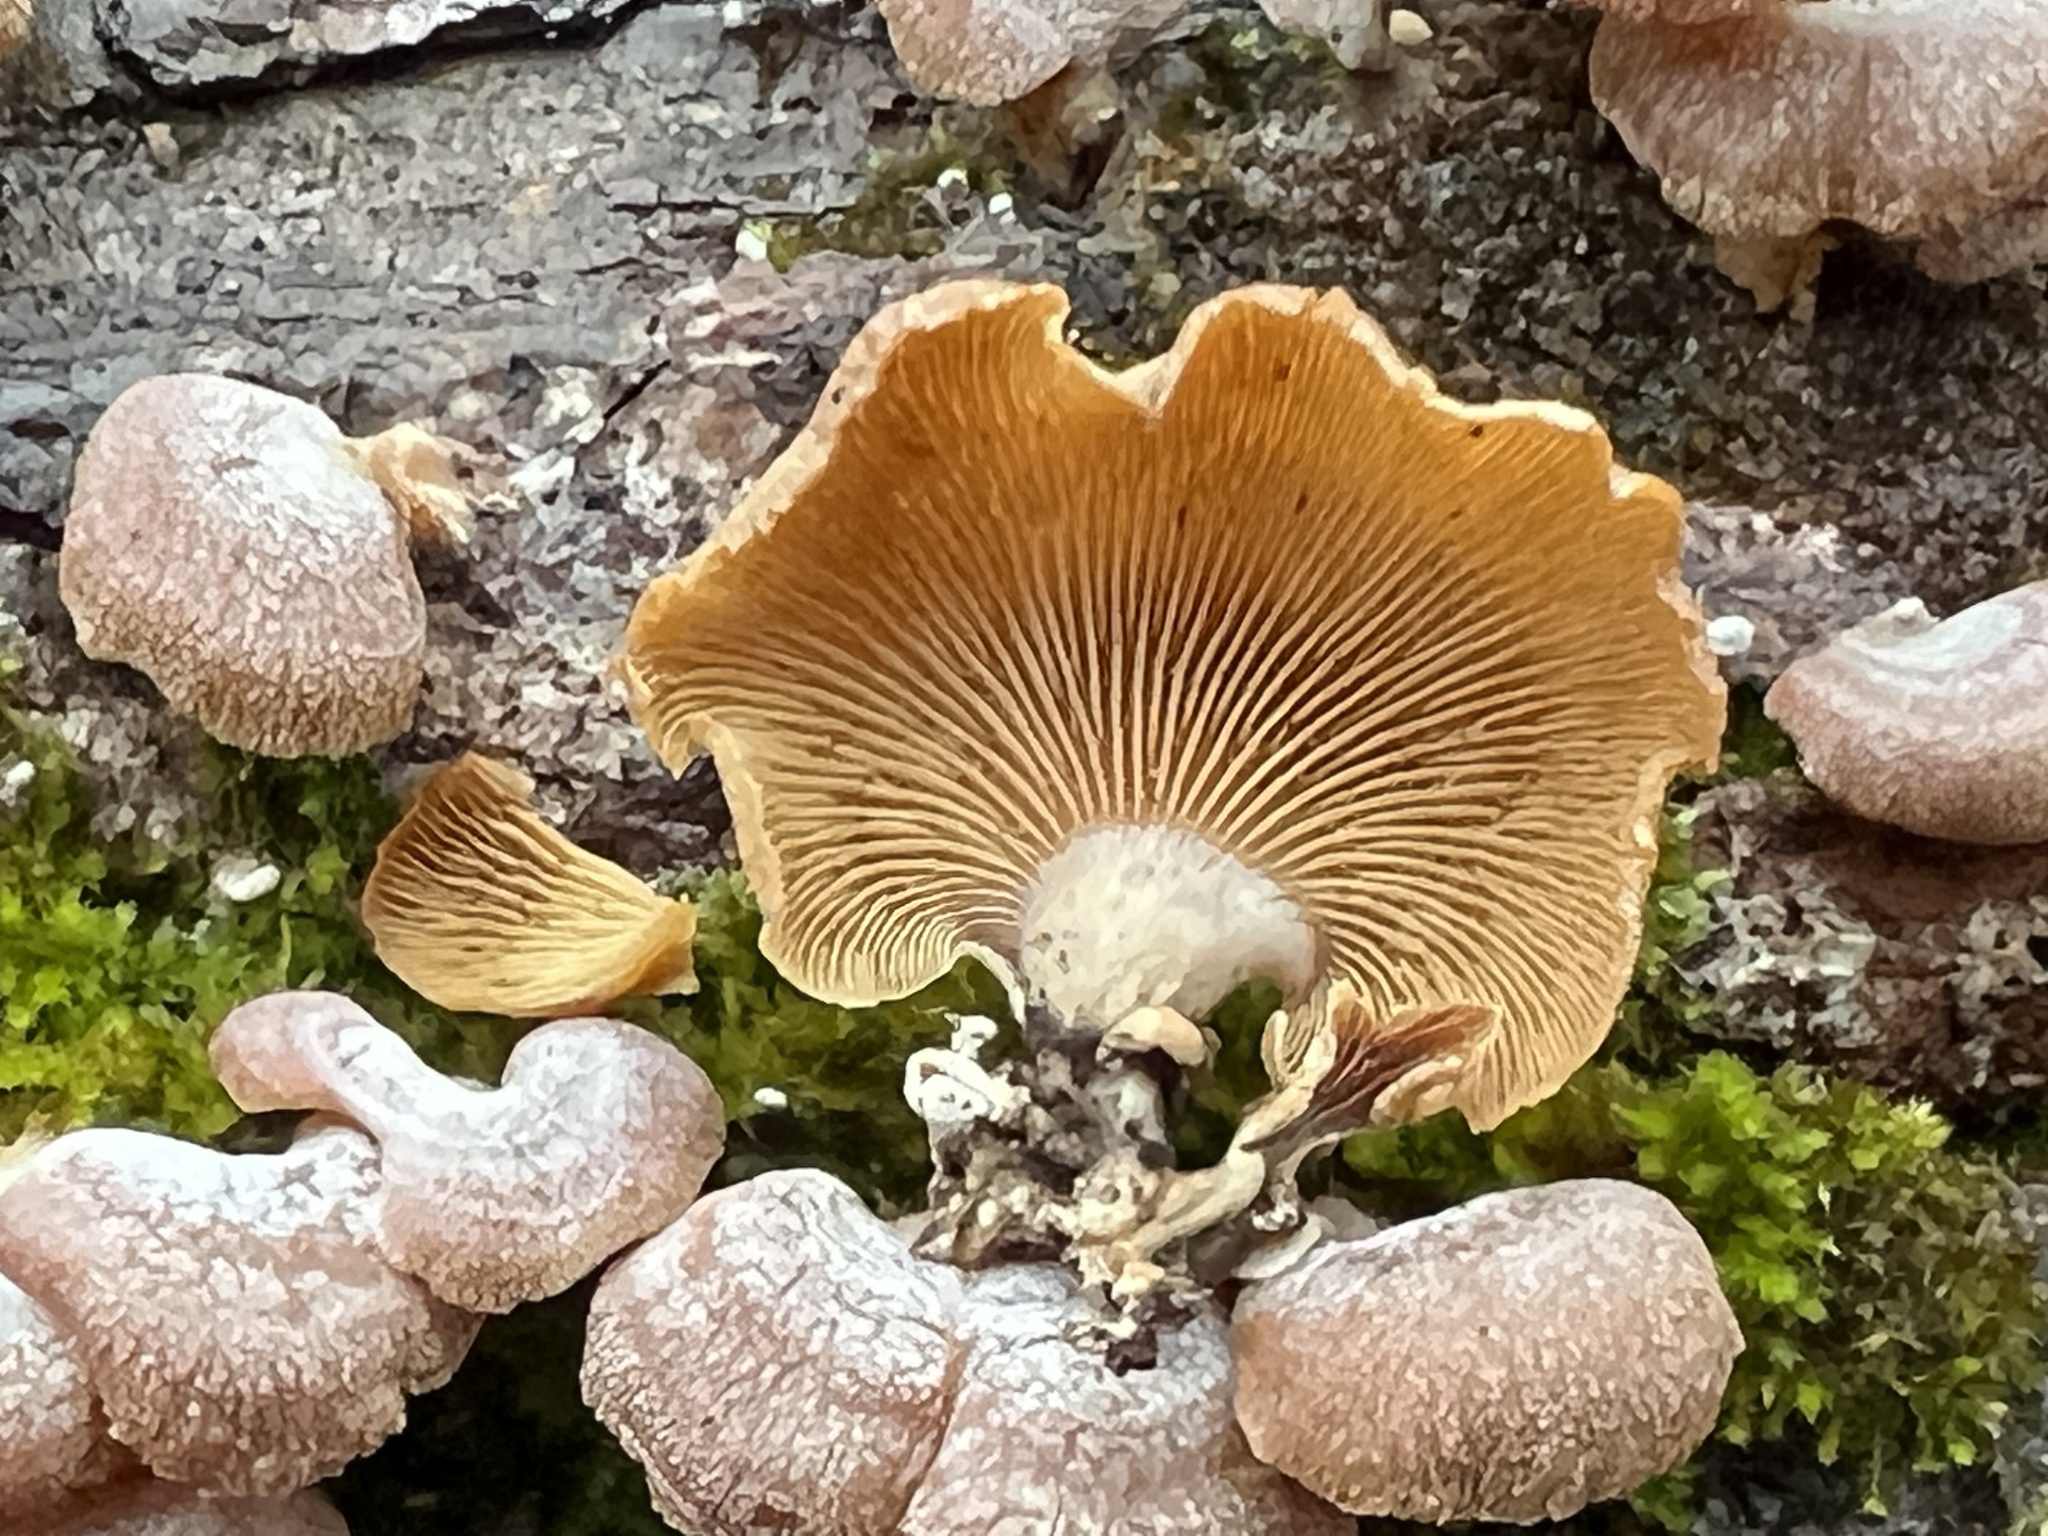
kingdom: Fungi
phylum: Basidiomycota
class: Agaricomycetes
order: Agaricales
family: Mycenaceae
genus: Panellus
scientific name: Panellus stipticus
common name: Bitter oysterling
